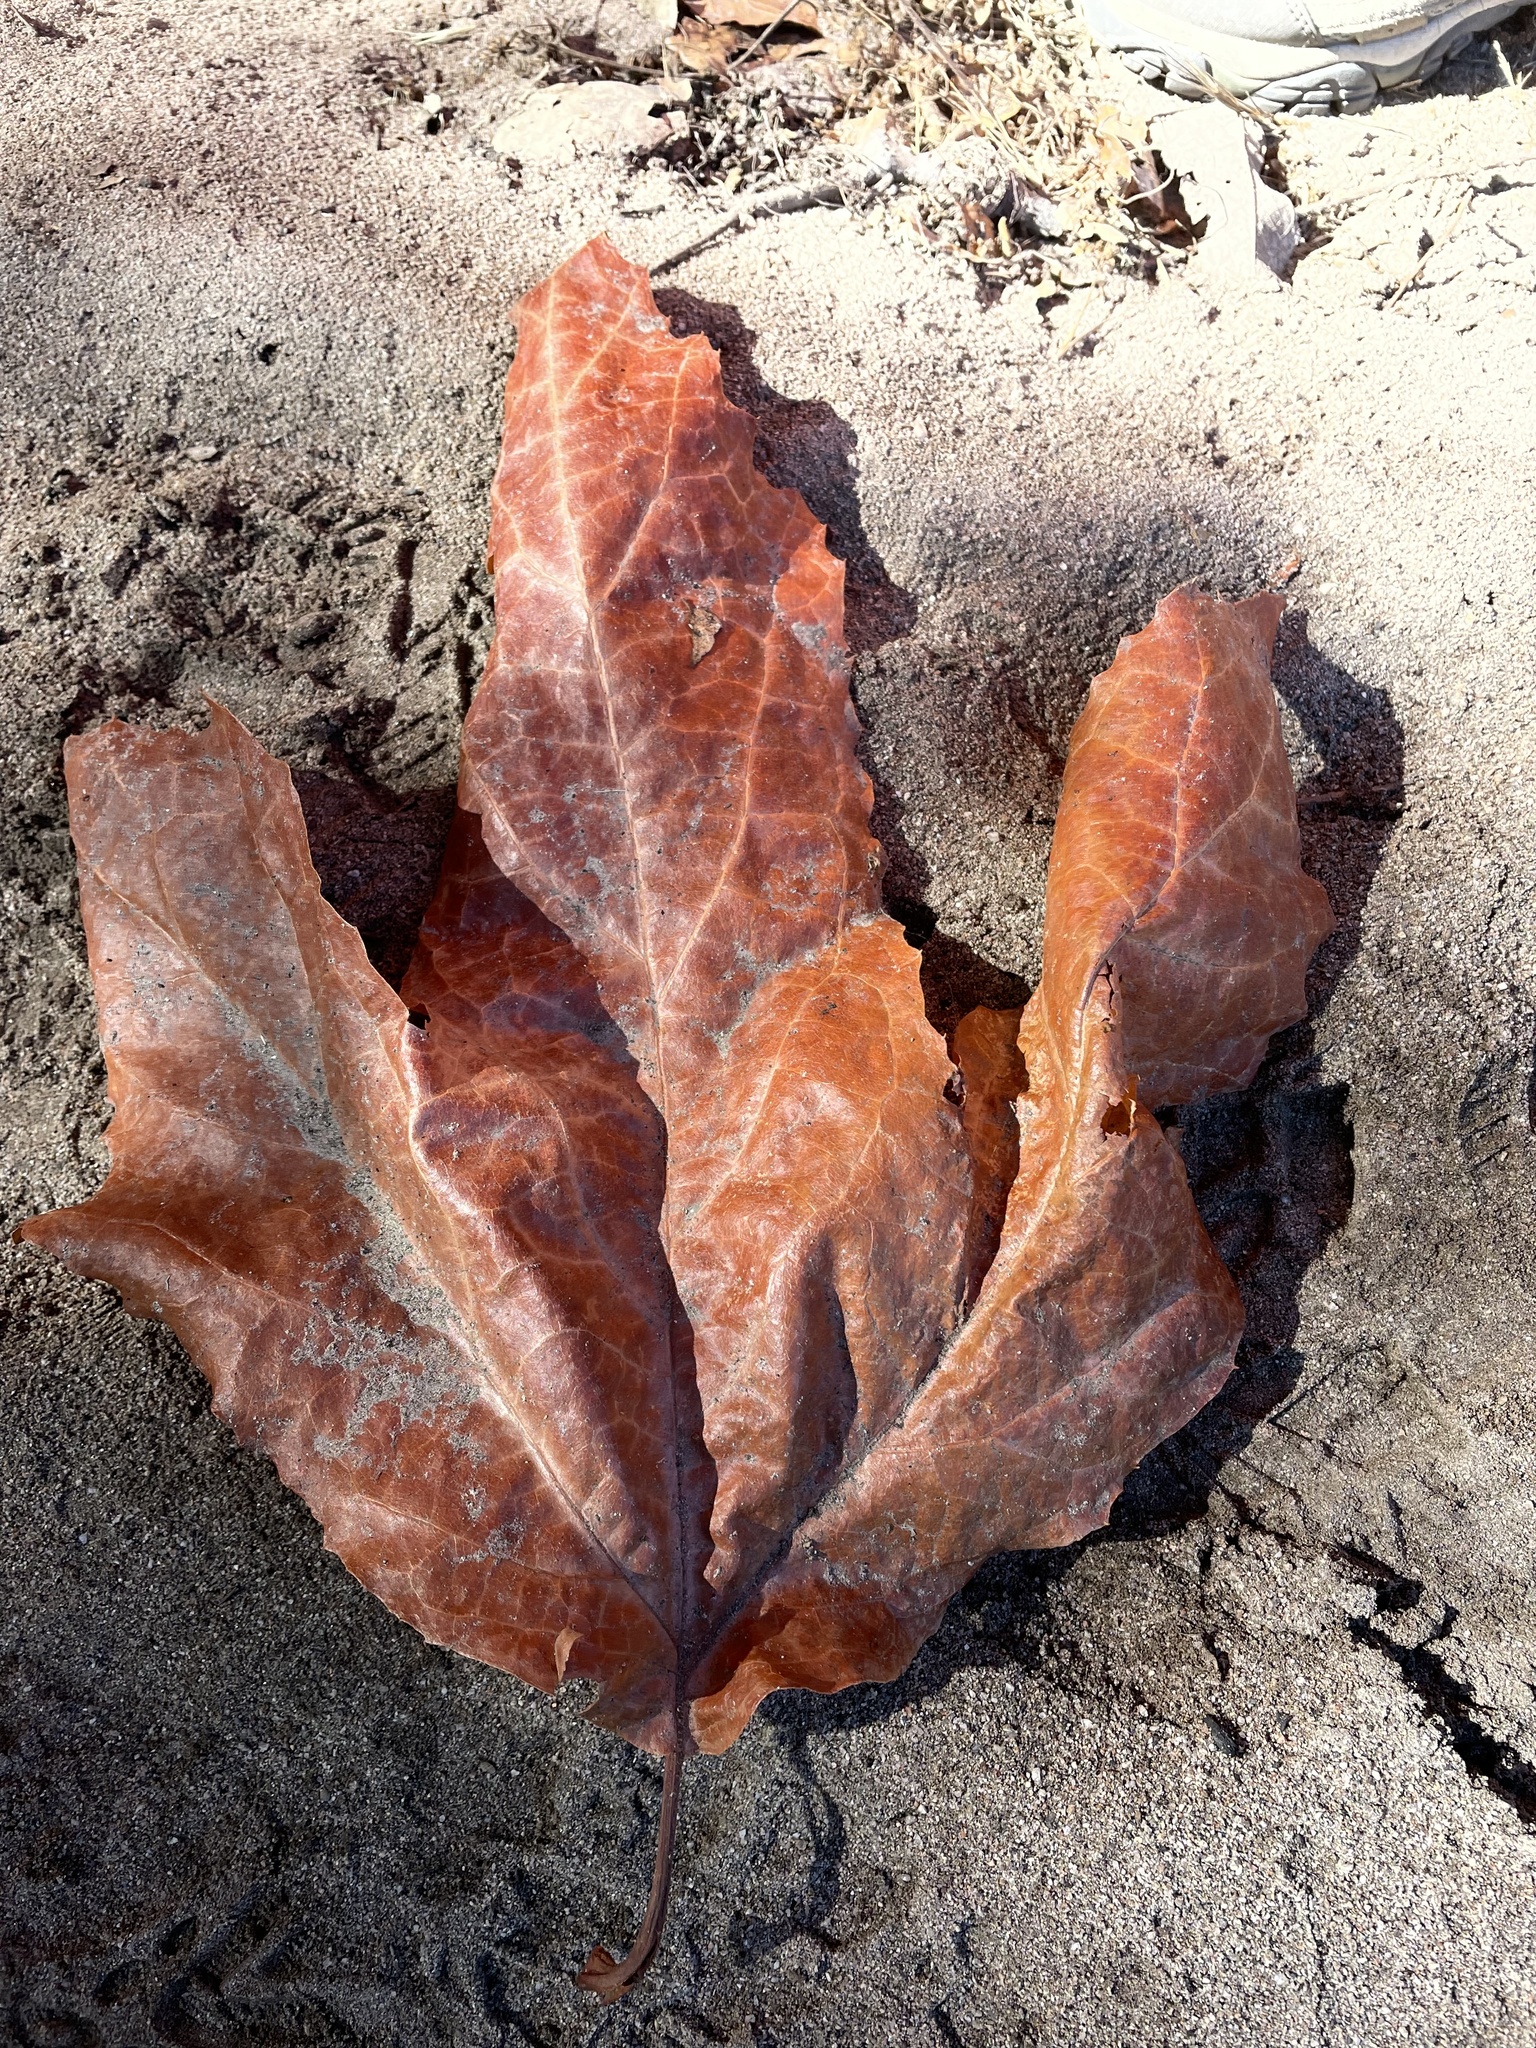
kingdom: Plantae
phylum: Tracheophyta
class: Magnoliopsida
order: Proteales
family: Platanaceae
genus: Platanus
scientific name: Platanus racemosa
